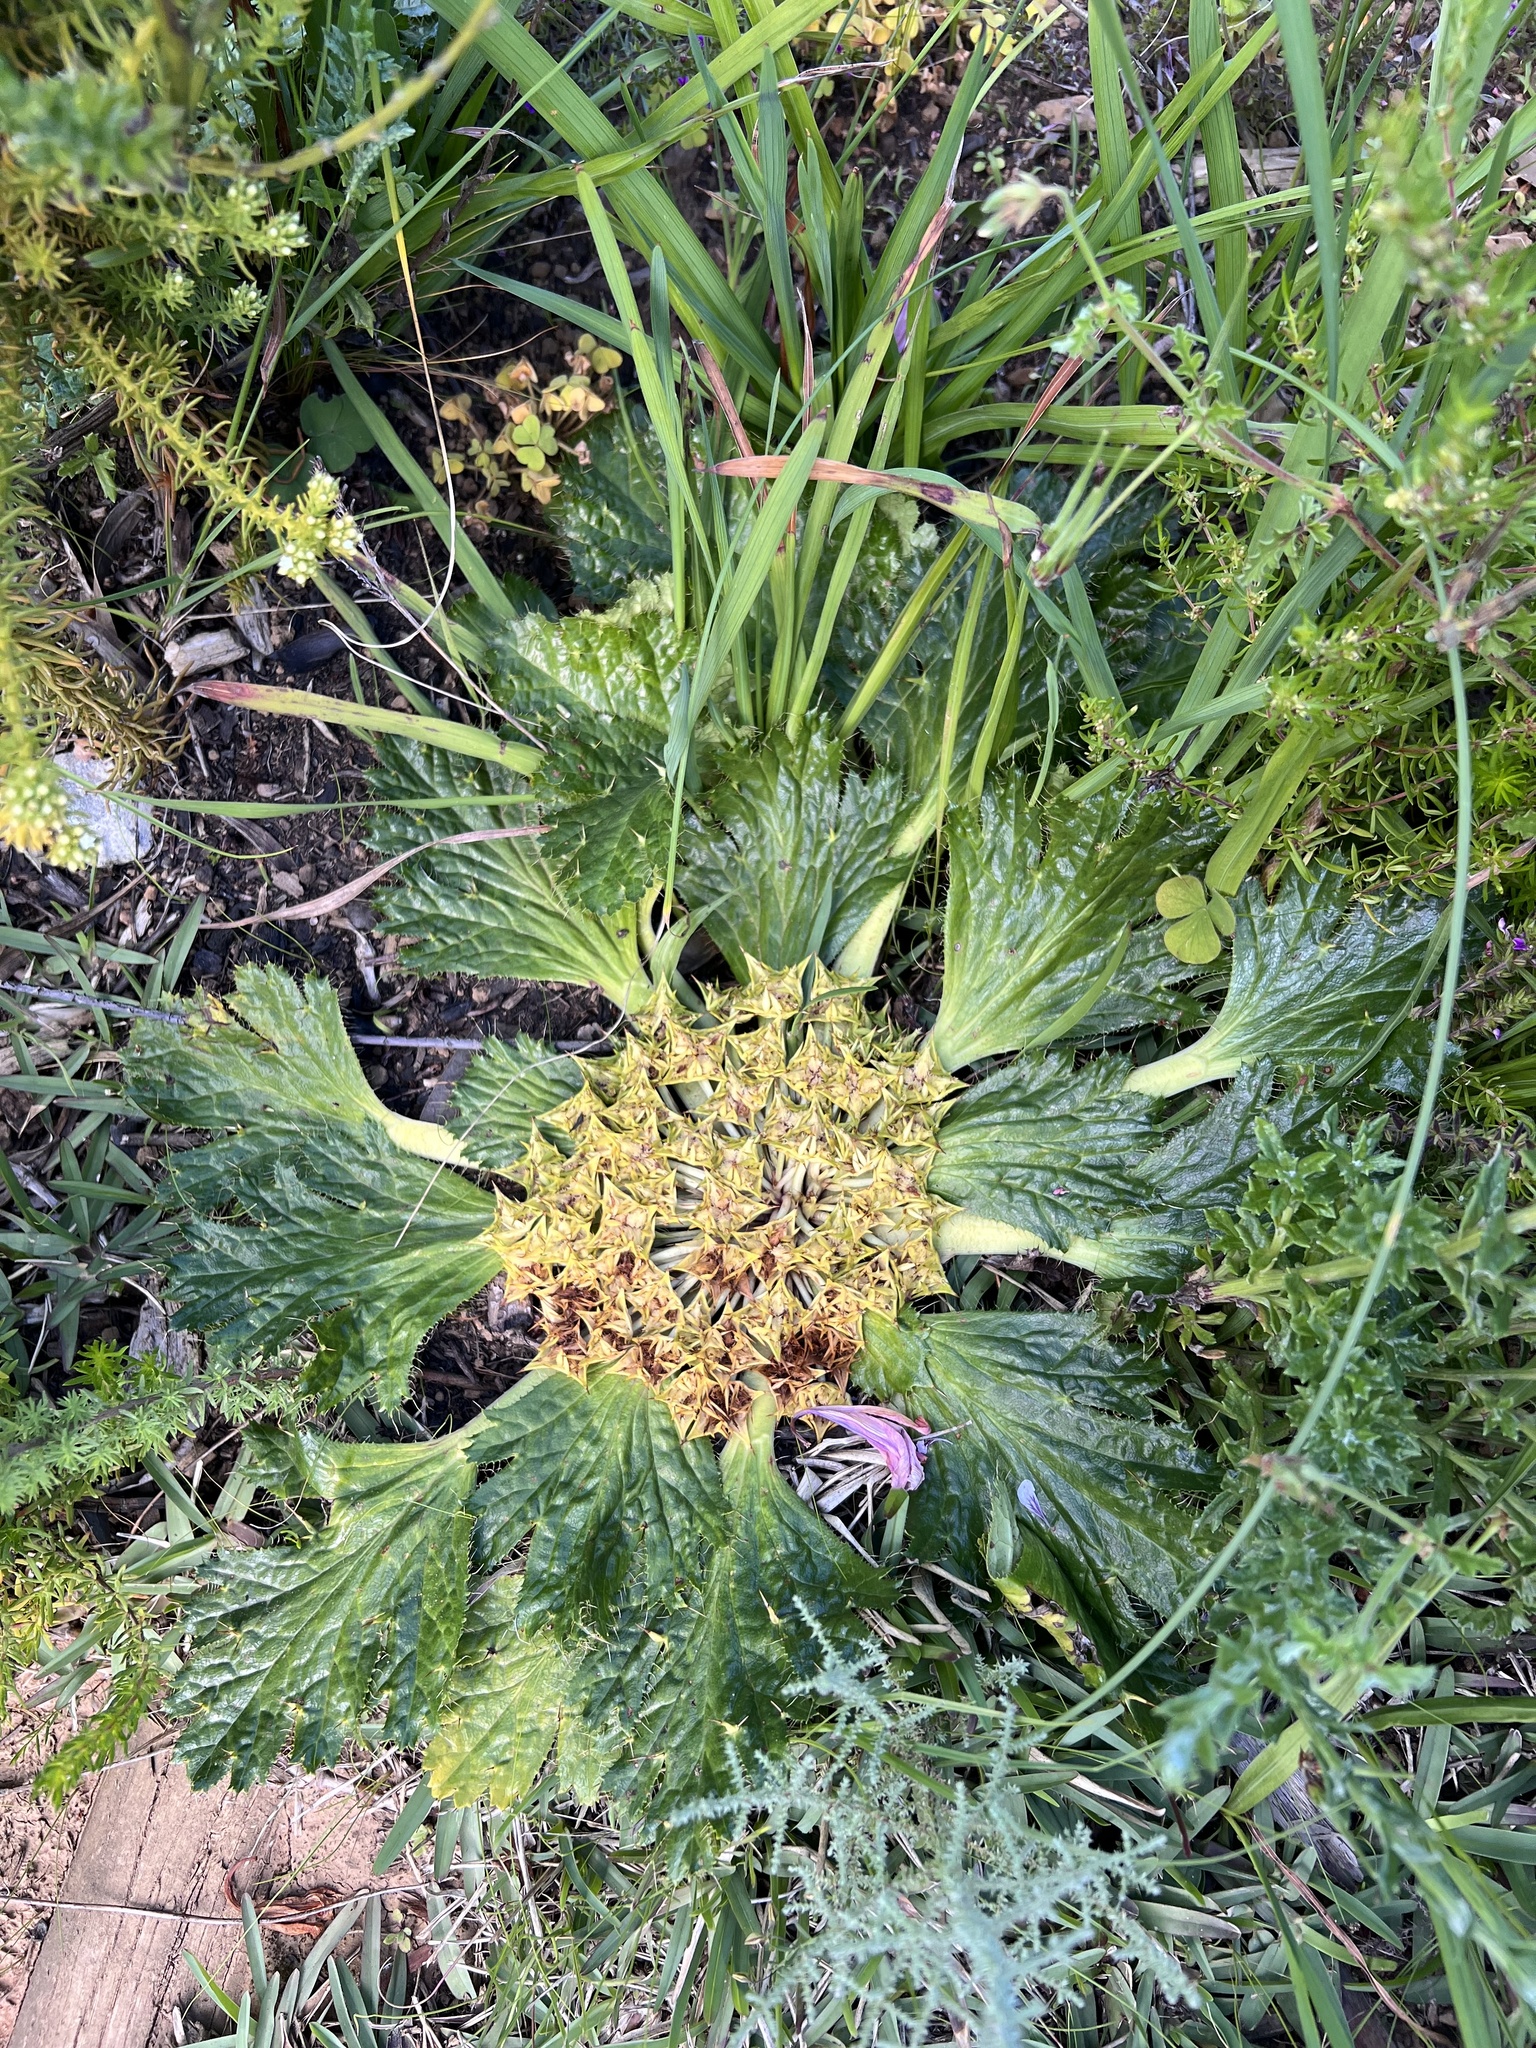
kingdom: Plantae
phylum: Tracheophyta
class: Magnoliopsida
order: Apiales
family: Apiaceae
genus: Arctopus
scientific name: Arctopus echinatus
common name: Platdoring
